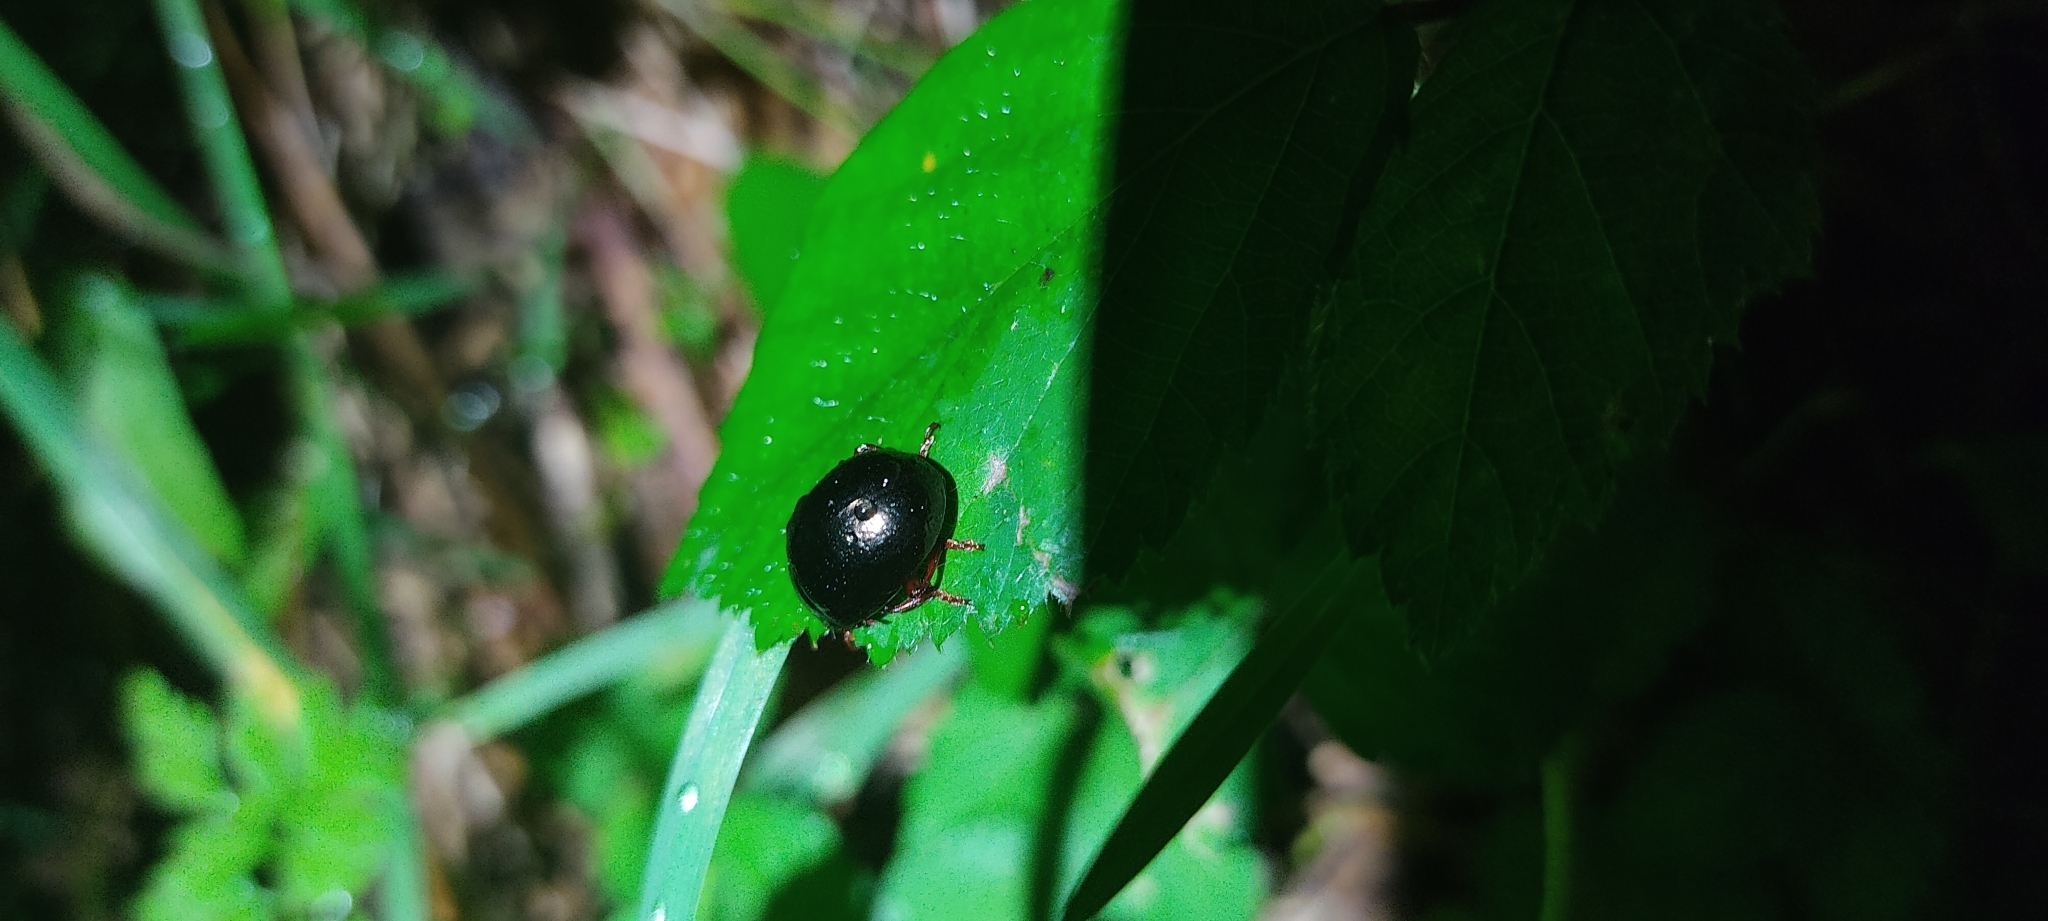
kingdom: Animalia
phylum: Arthropoda
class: Insecta
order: Coleoptera
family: Chrysomelidae
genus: Chrysolina
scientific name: Chrysolina bankii
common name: Leaf beetle
